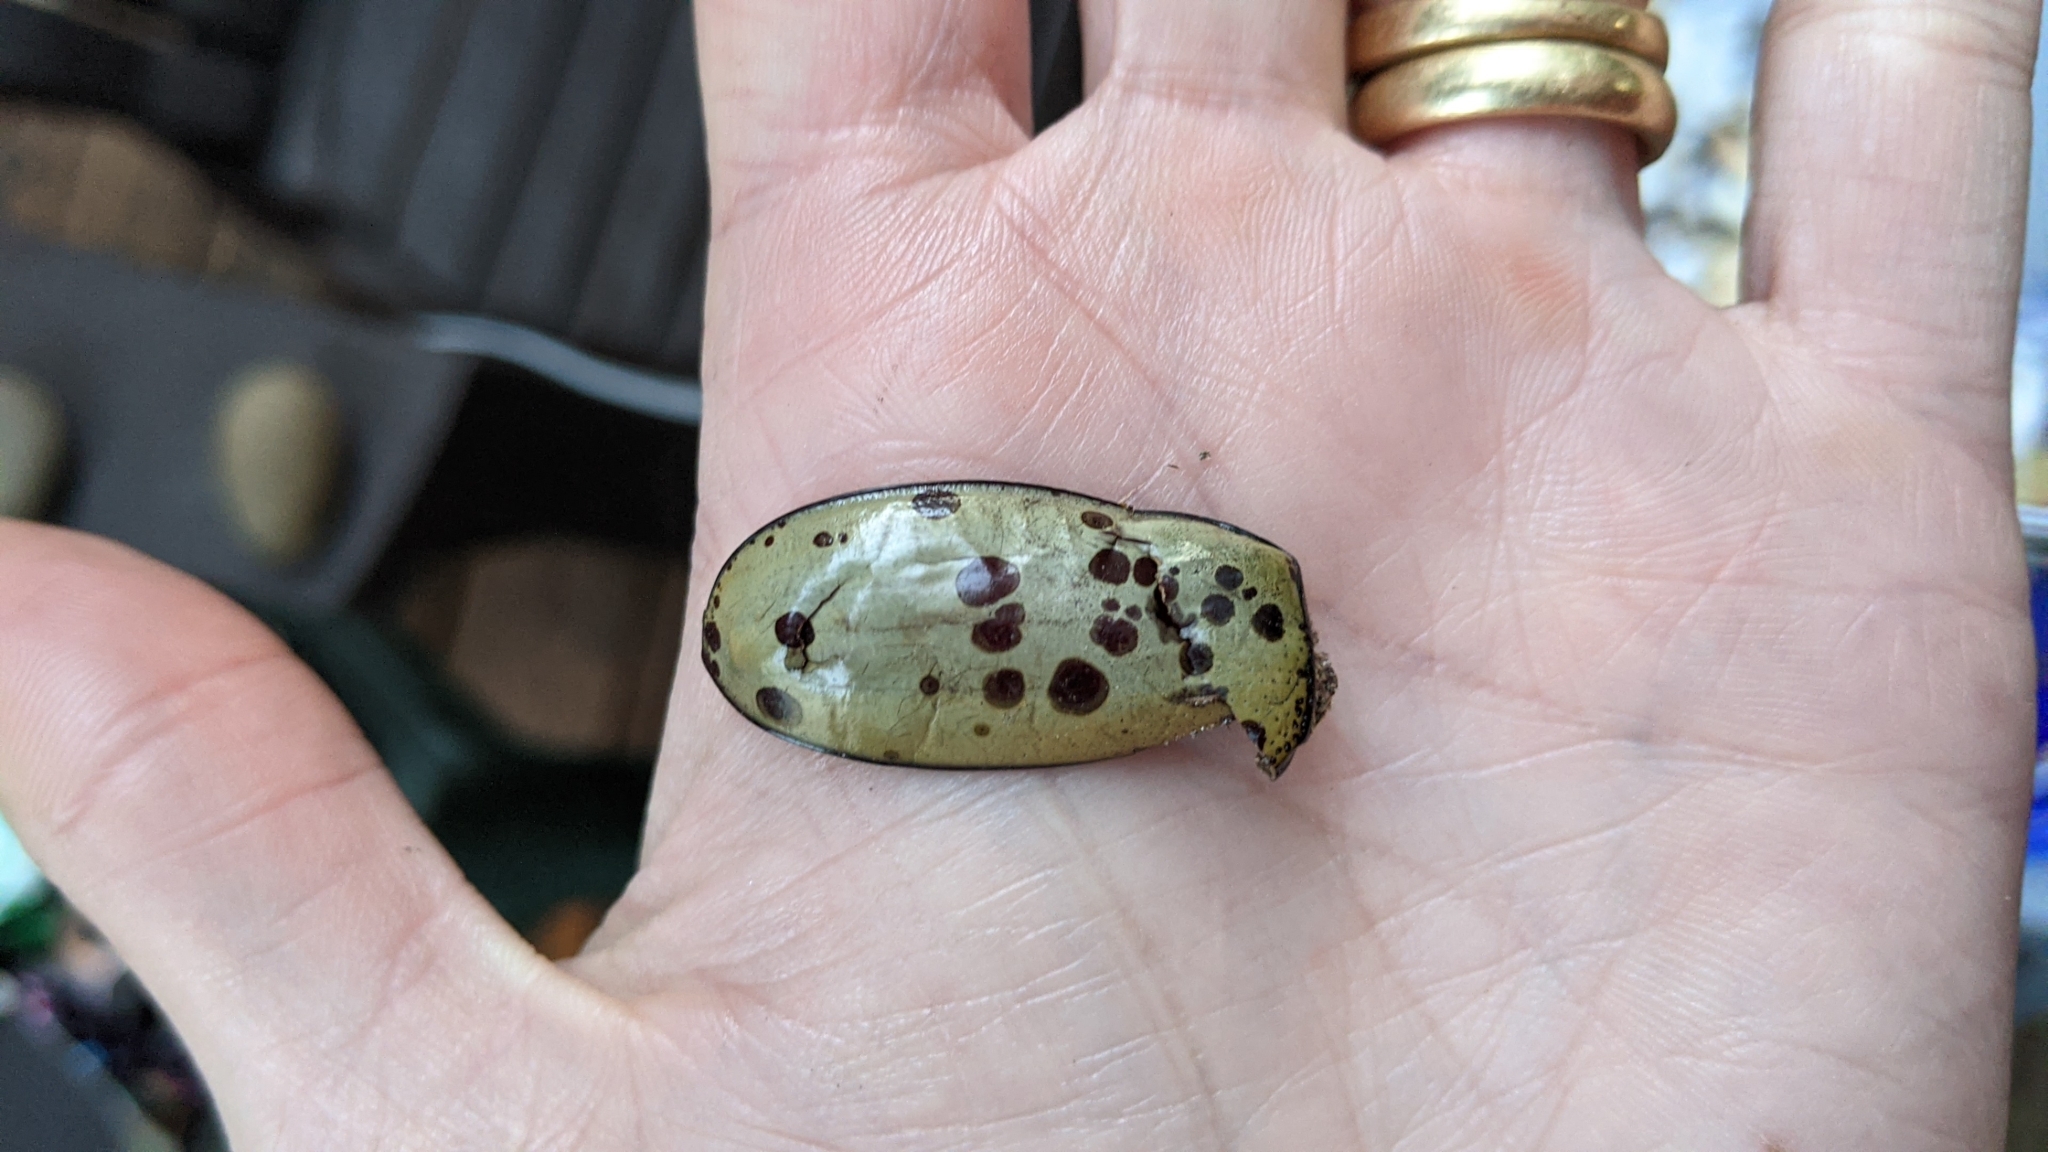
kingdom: Animalia
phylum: Arthropoda
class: Insecta
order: Coleoptera
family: Scarabaeidae
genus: Dynastes
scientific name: Dynastes tityus
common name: Eastern hercules beetle
